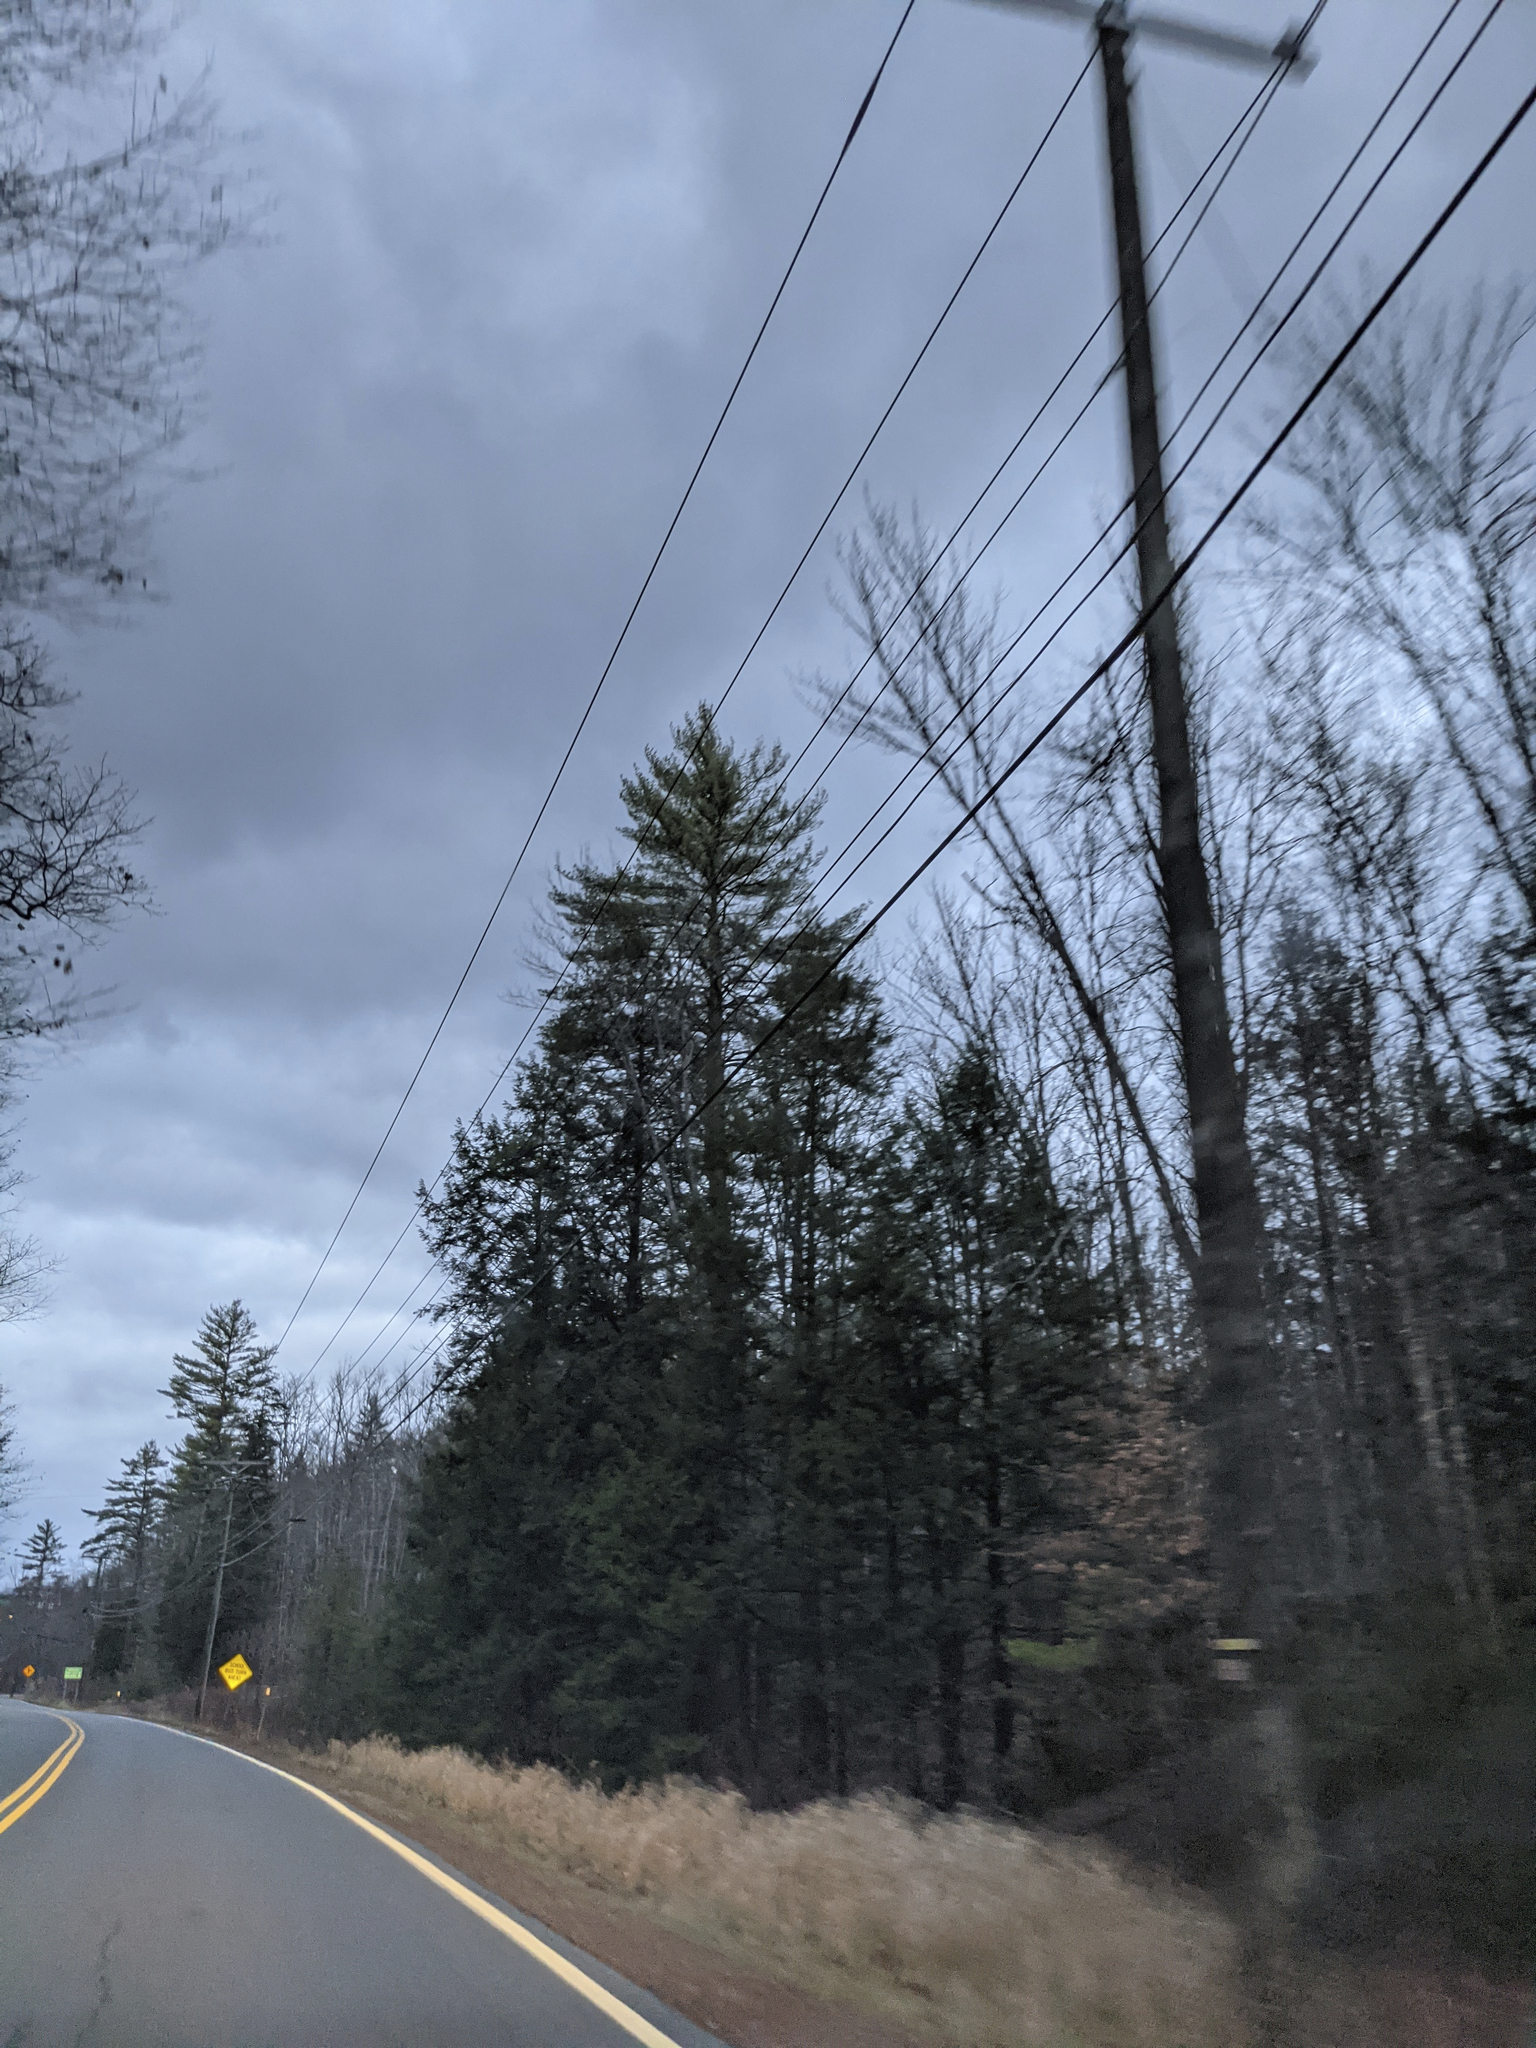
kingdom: Plantae
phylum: Tracheophyta
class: Pinopsida
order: Pinales
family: Pinaceae
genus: Pinus
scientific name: Pinus strobus
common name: Weymouth pine
